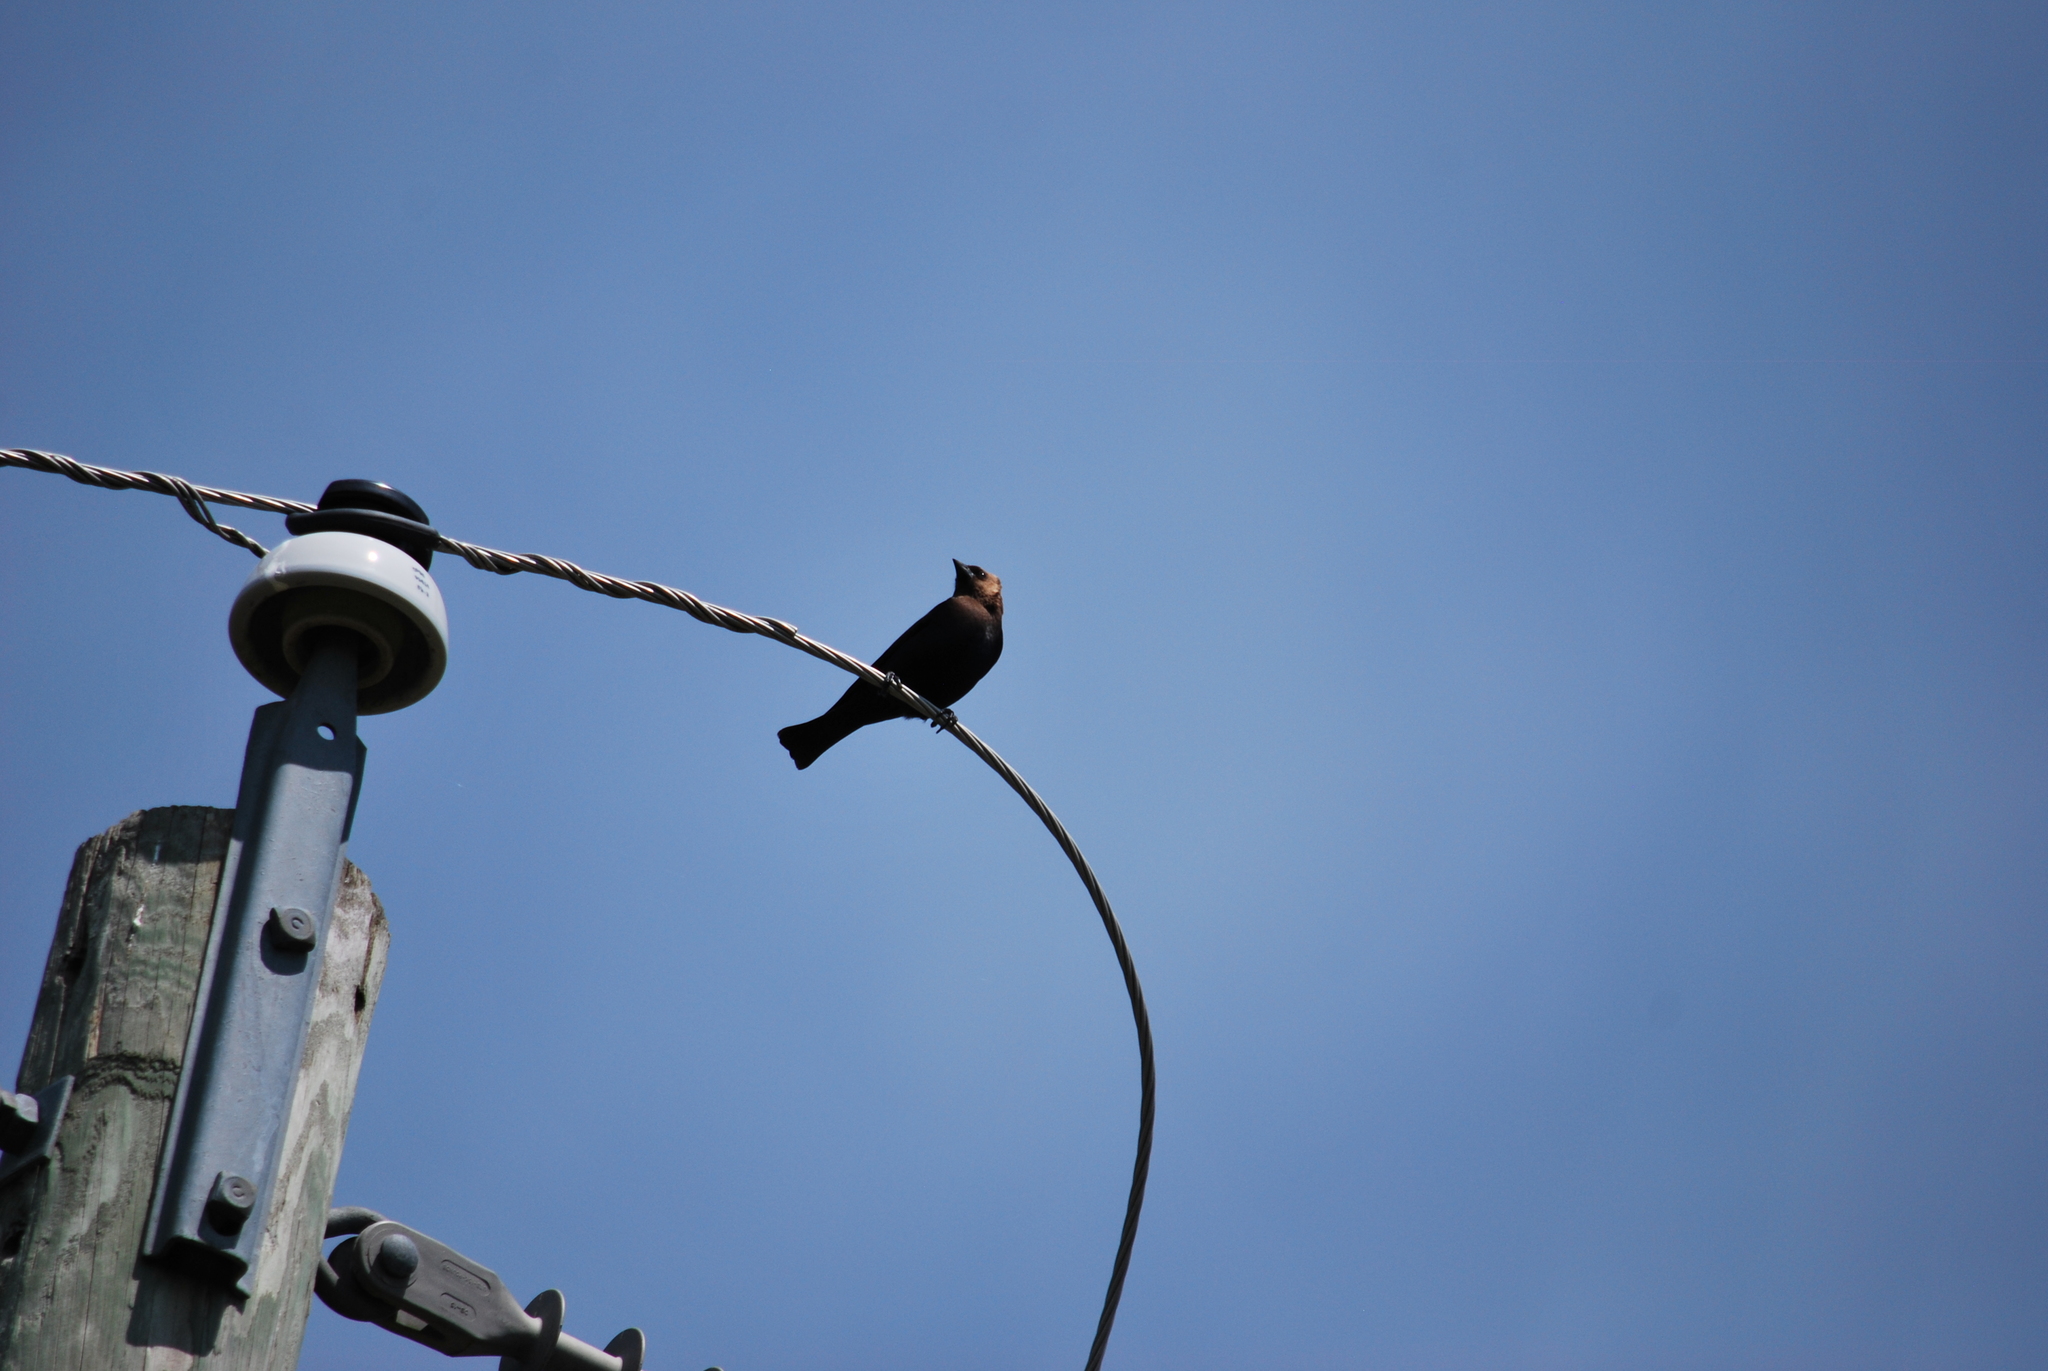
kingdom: Animalia
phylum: Chordata
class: Aves
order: Passeriformes
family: Icteridae
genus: Molothrus
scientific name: Molothrus ater
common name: Brown-headed cowbird
